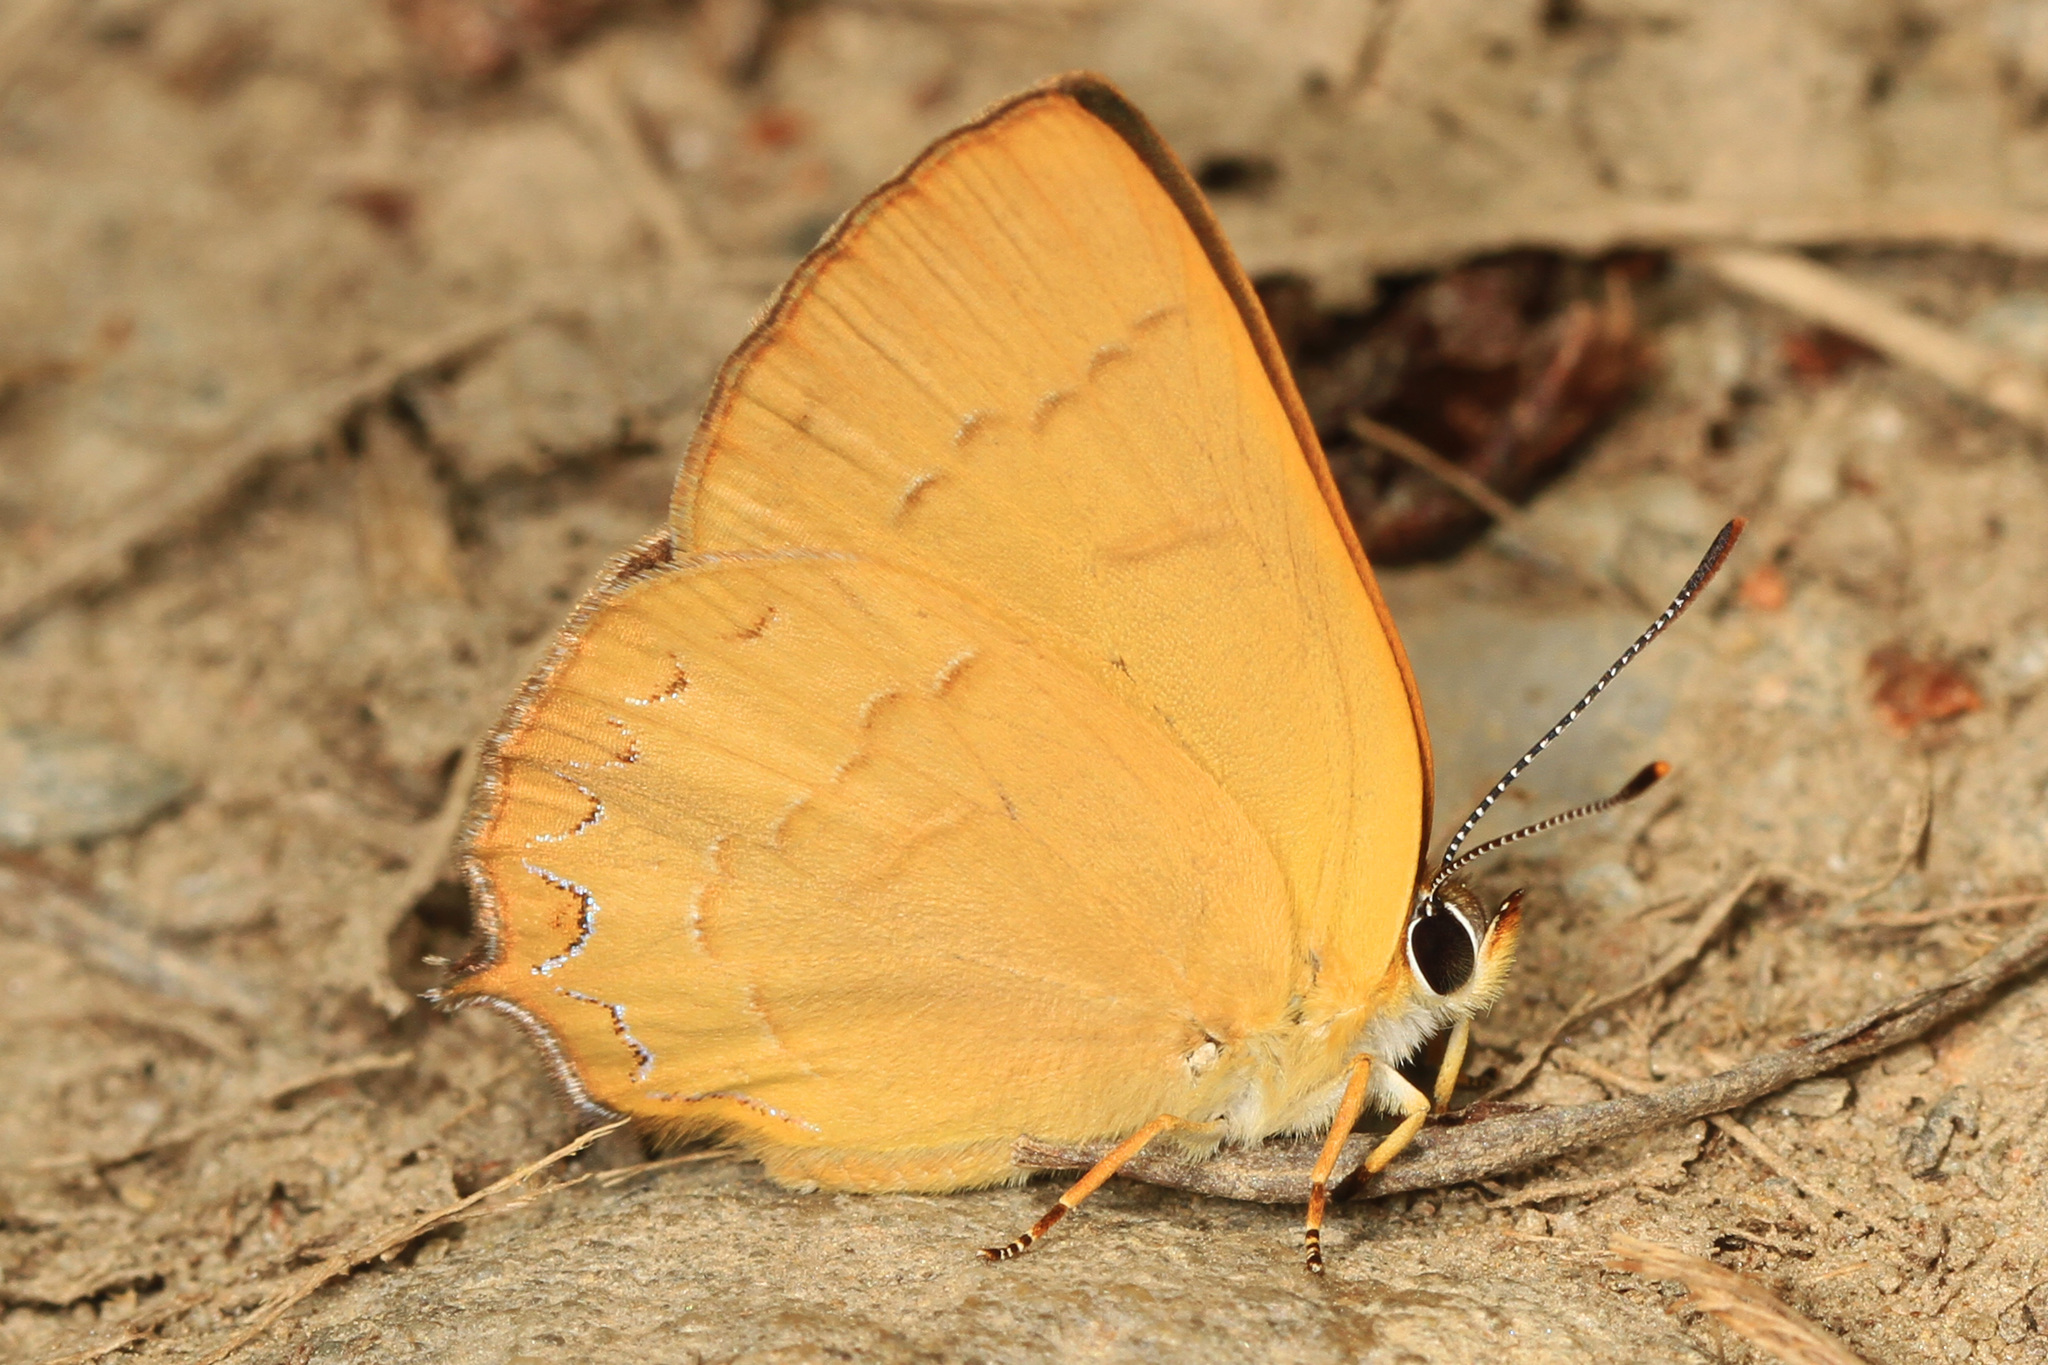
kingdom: Animalia
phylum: Arthropoda
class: Insecta
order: Lepidoptera
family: Lycaenidae
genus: Habrodais
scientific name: Habrodais grunus
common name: Golden hairstreak
